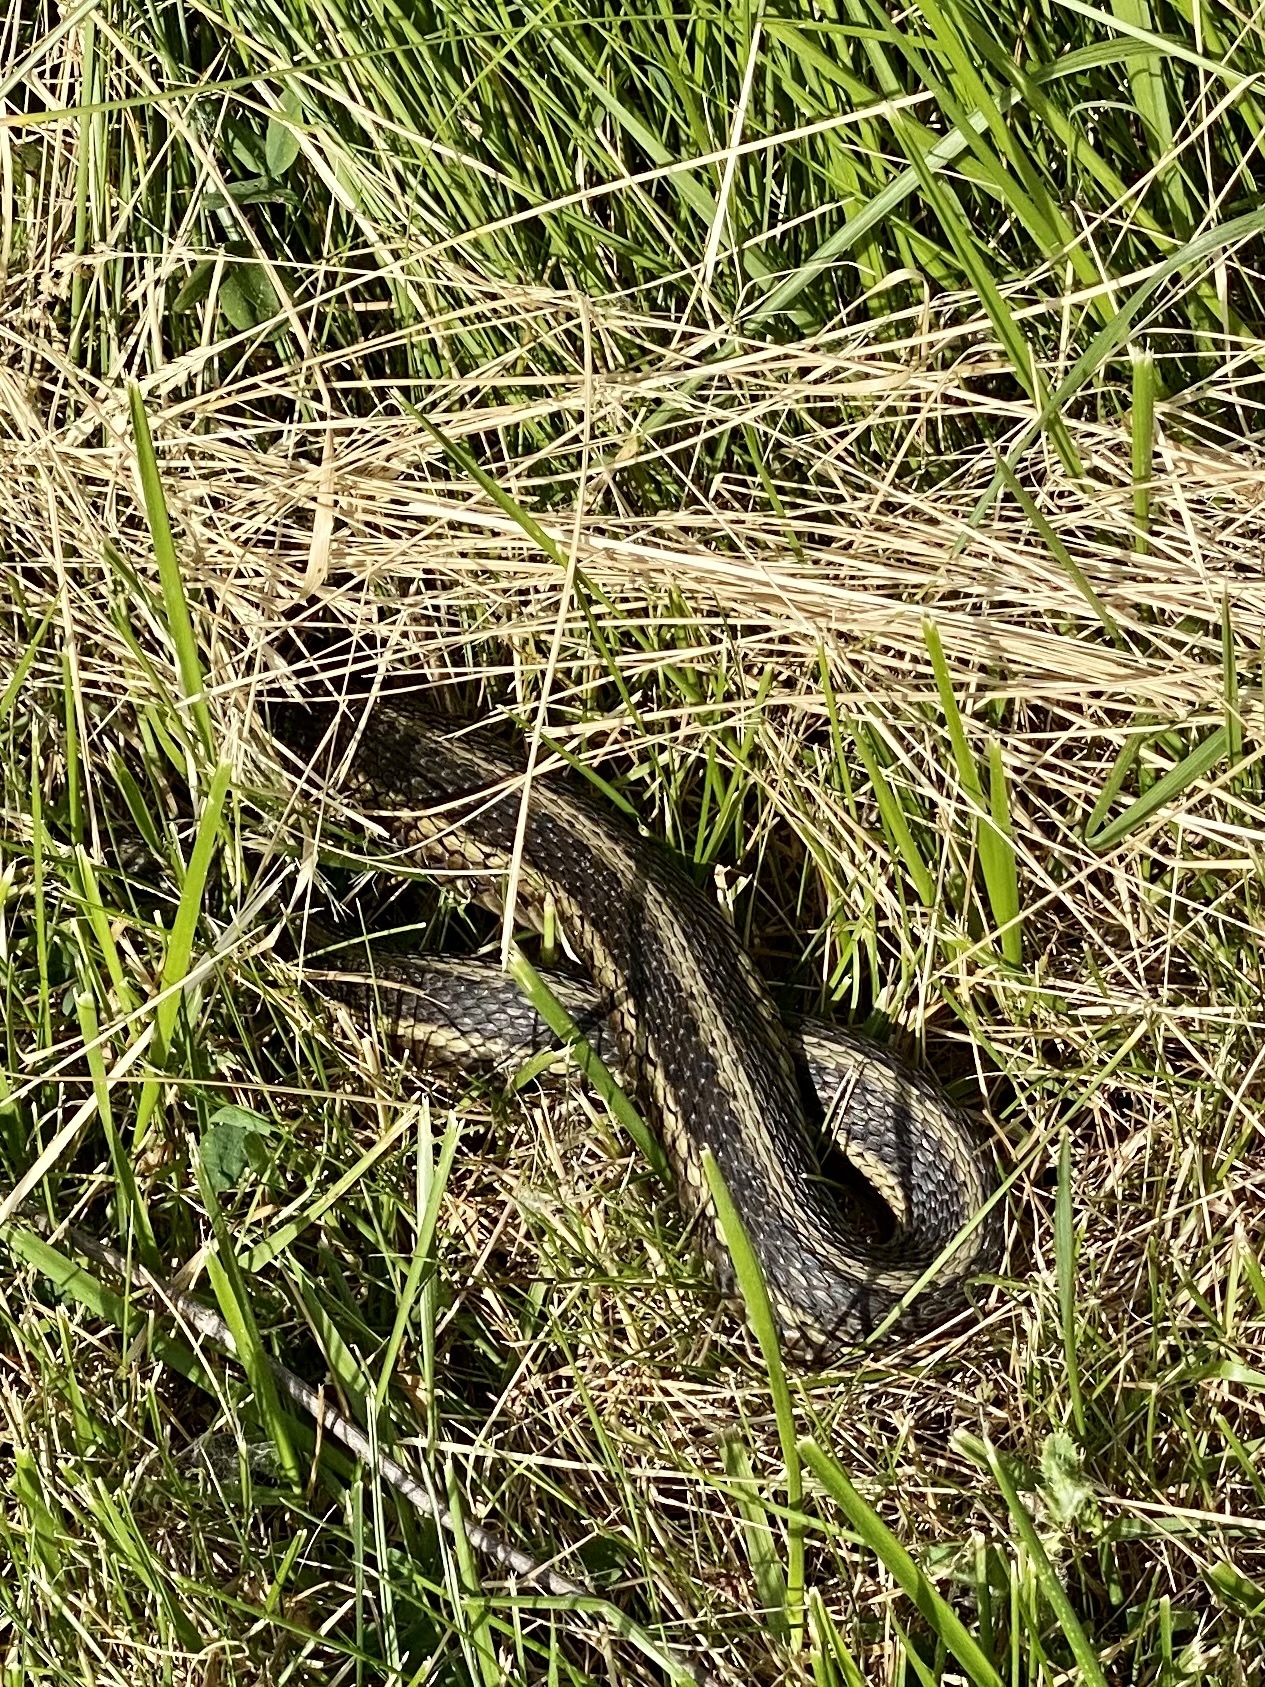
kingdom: Animalia
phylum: Chordata
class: Squamata
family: Colubridae
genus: Thamnophis
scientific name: Thamnophis sirtalis
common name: Common garter snake
